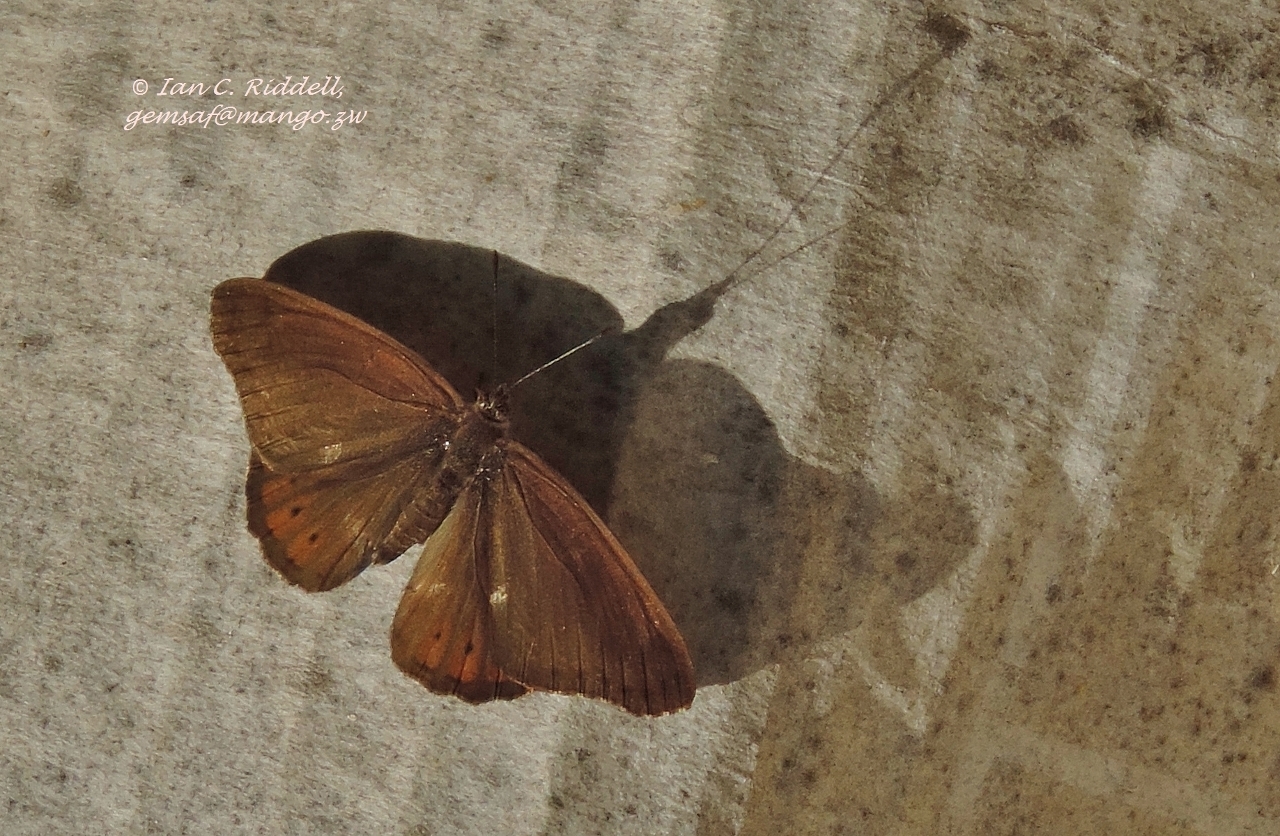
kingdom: Animalia
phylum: Arthropoda
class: Insecta
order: Lepidoptera
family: Nymphalidae
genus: Asterope
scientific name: Asterope boisduvali
